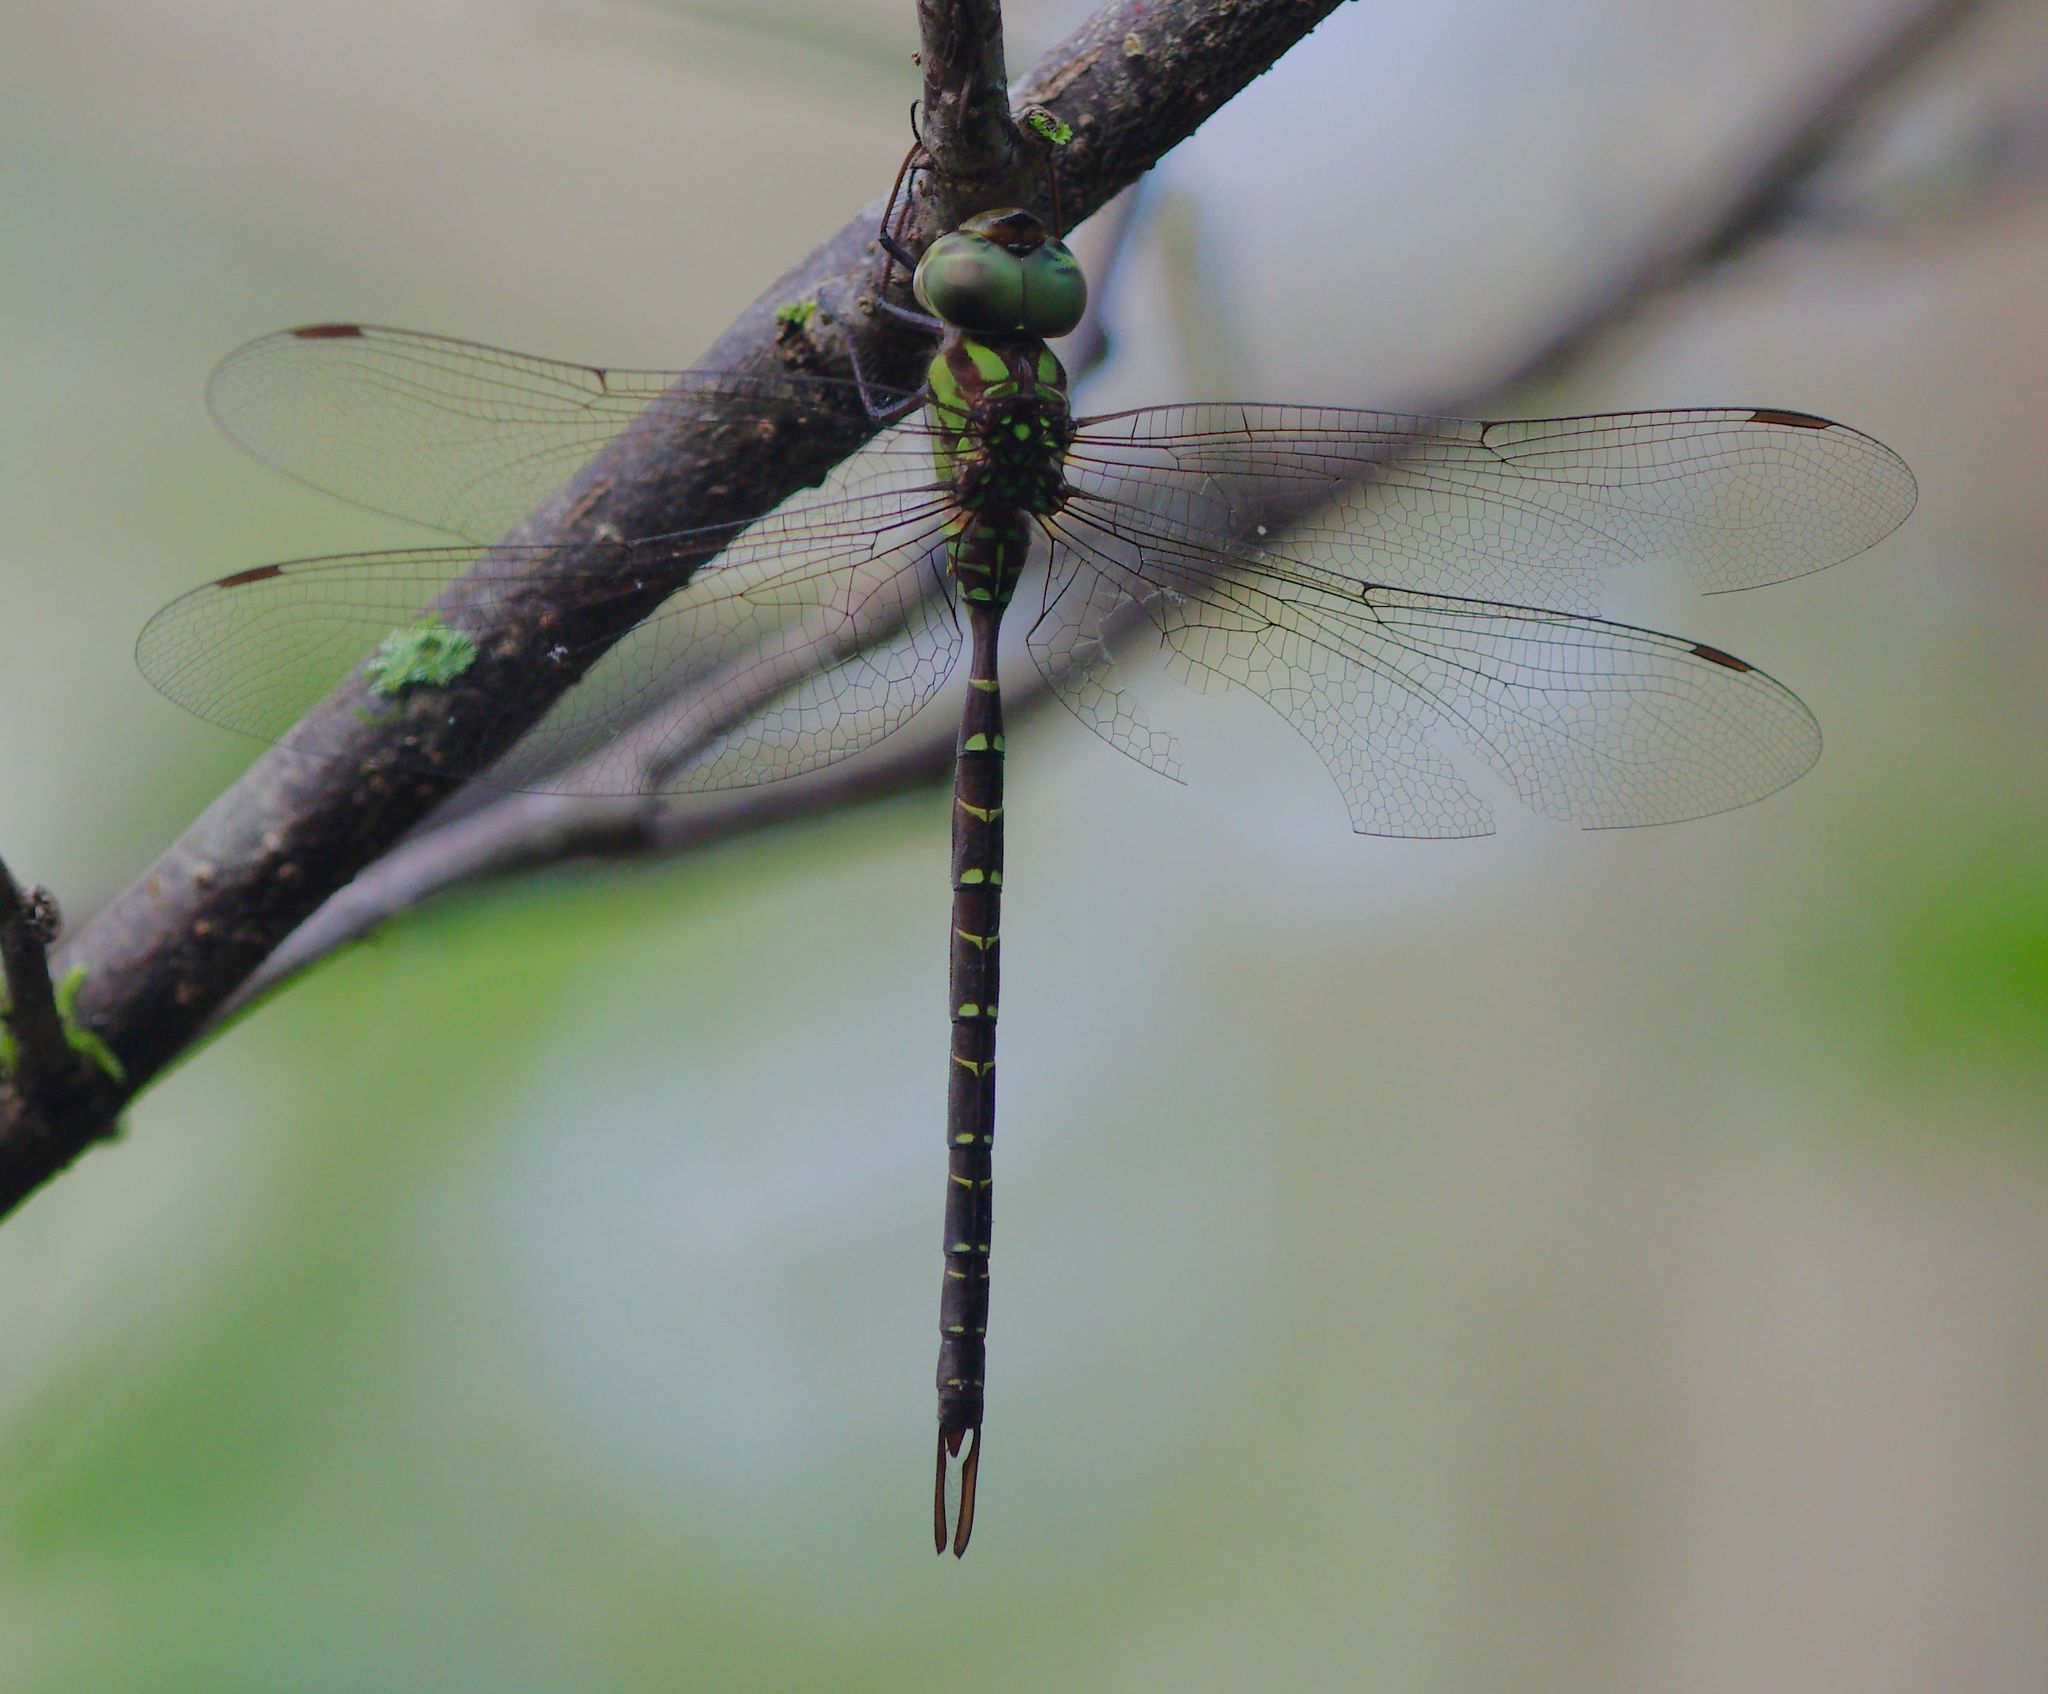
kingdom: Animalia
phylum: Arthropoda
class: Insecta
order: Odonata
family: Aeshnidae
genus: Triacanthagyna
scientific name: Triacanthagyna trifida
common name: Phantom darner
